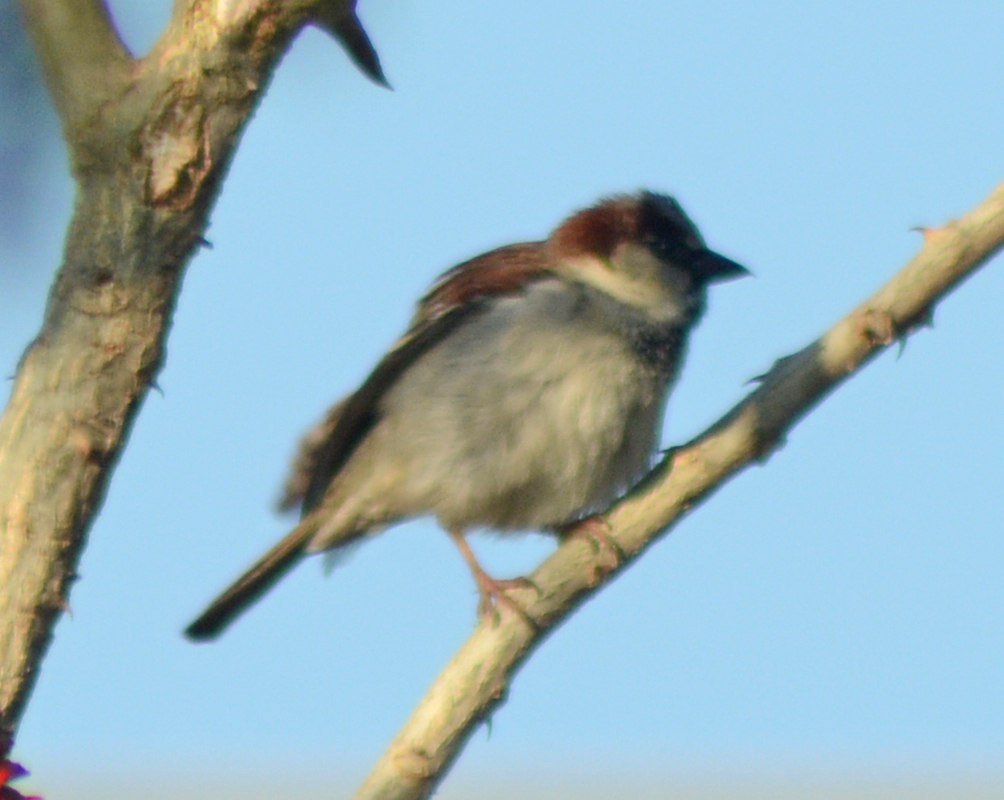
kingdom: Animalia
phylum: Chordata
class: Aves
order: Passeriformes
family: Passeridae
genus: Passer
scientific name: Passer domesticus
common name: House sparrow
